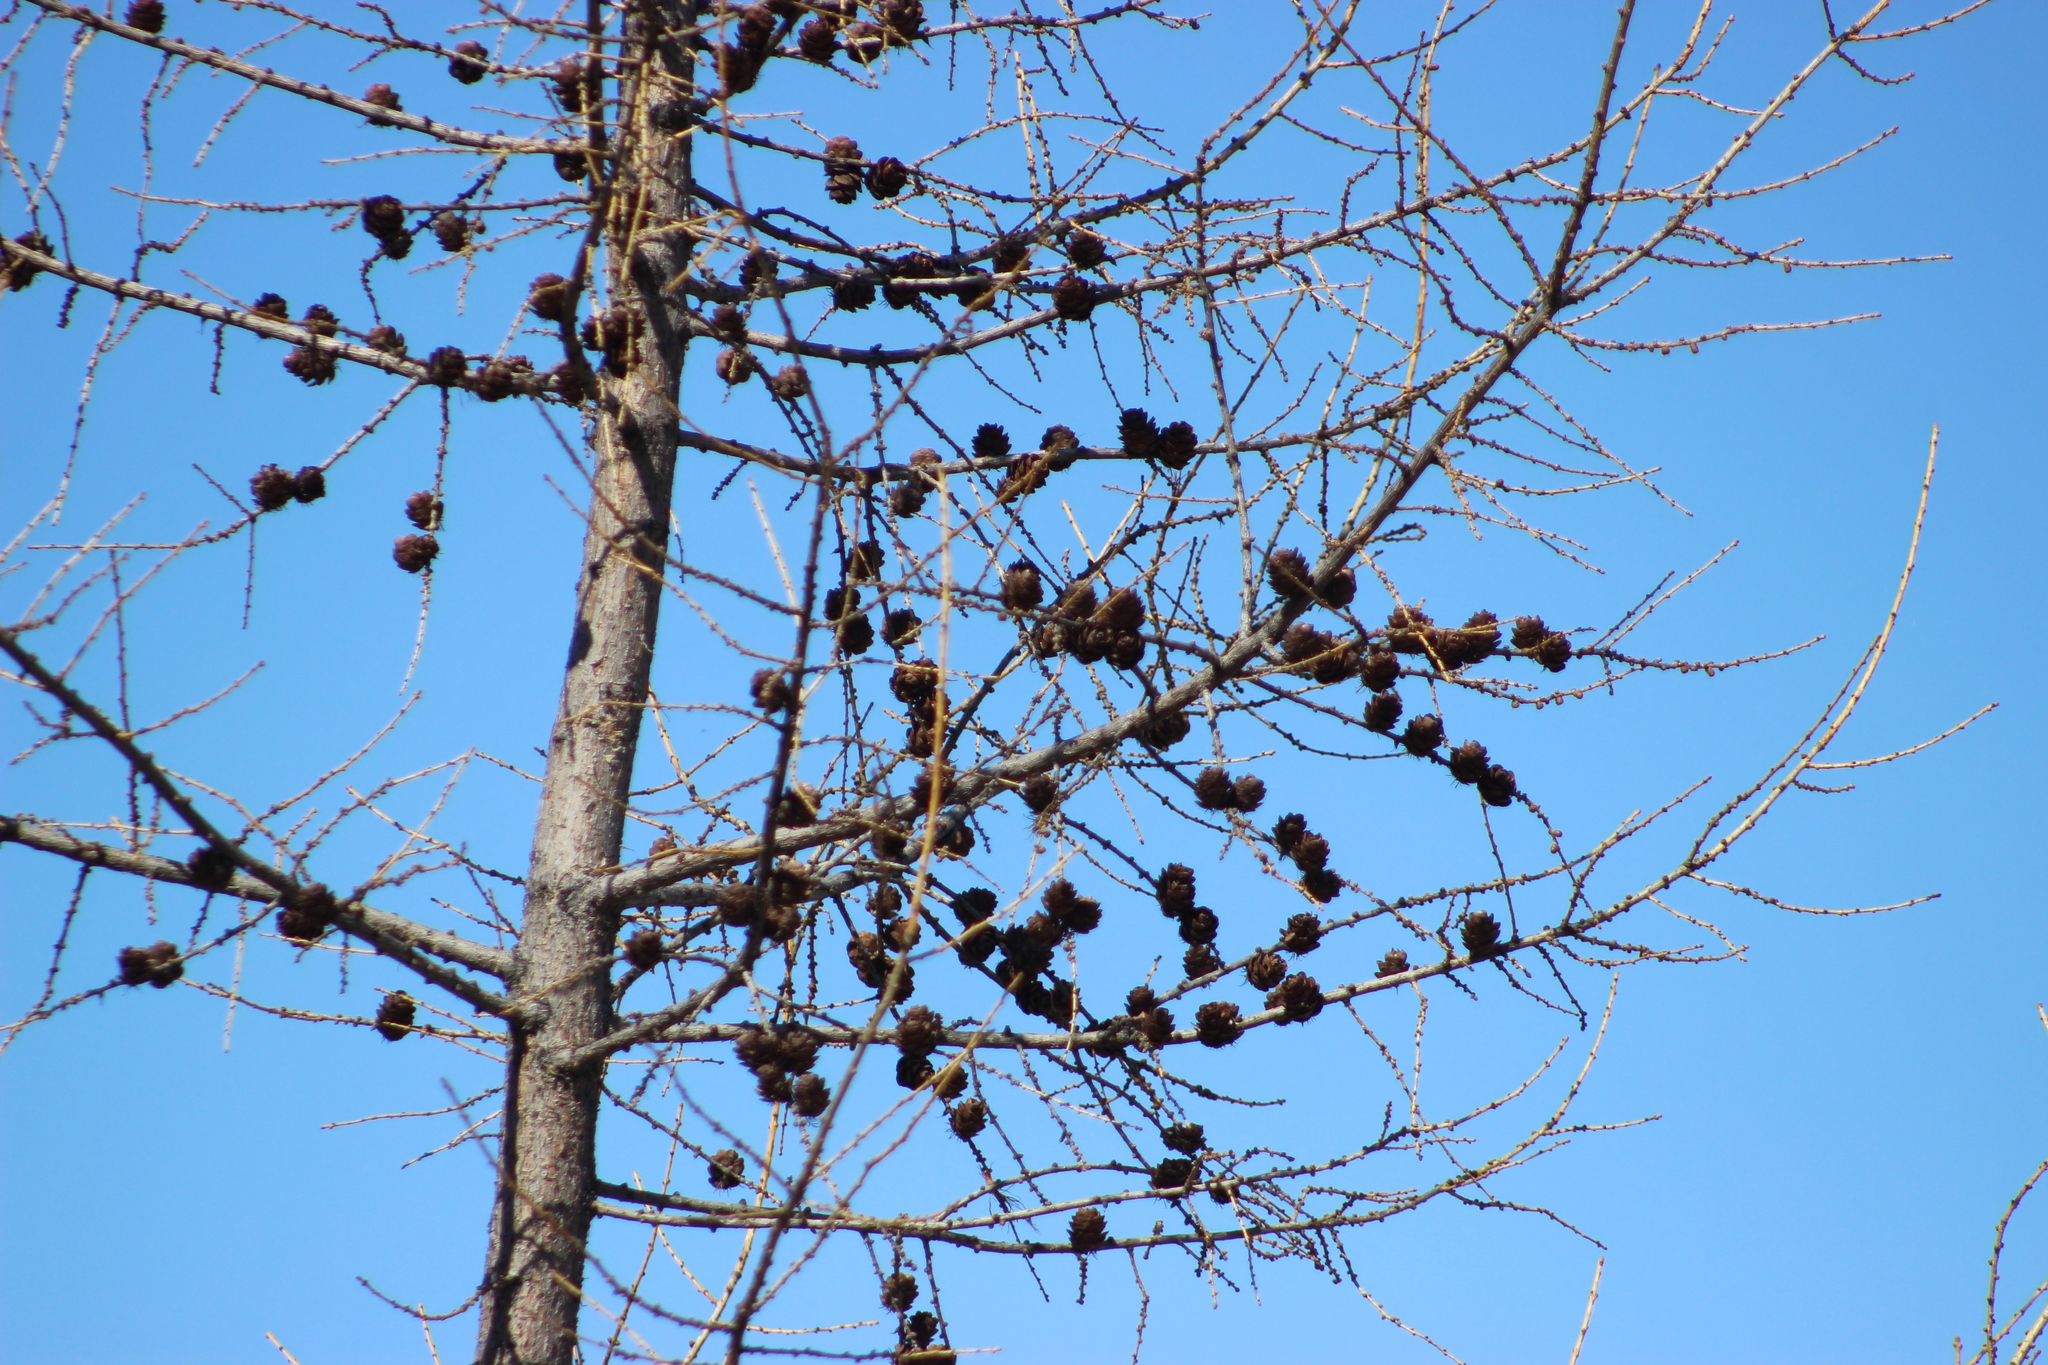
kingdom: Plantae
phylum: Tracheophyta
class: Pinopsida
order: Pinales
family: Pinaceae
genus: Larix
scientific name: Larix sibirica
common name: Siberian larch
